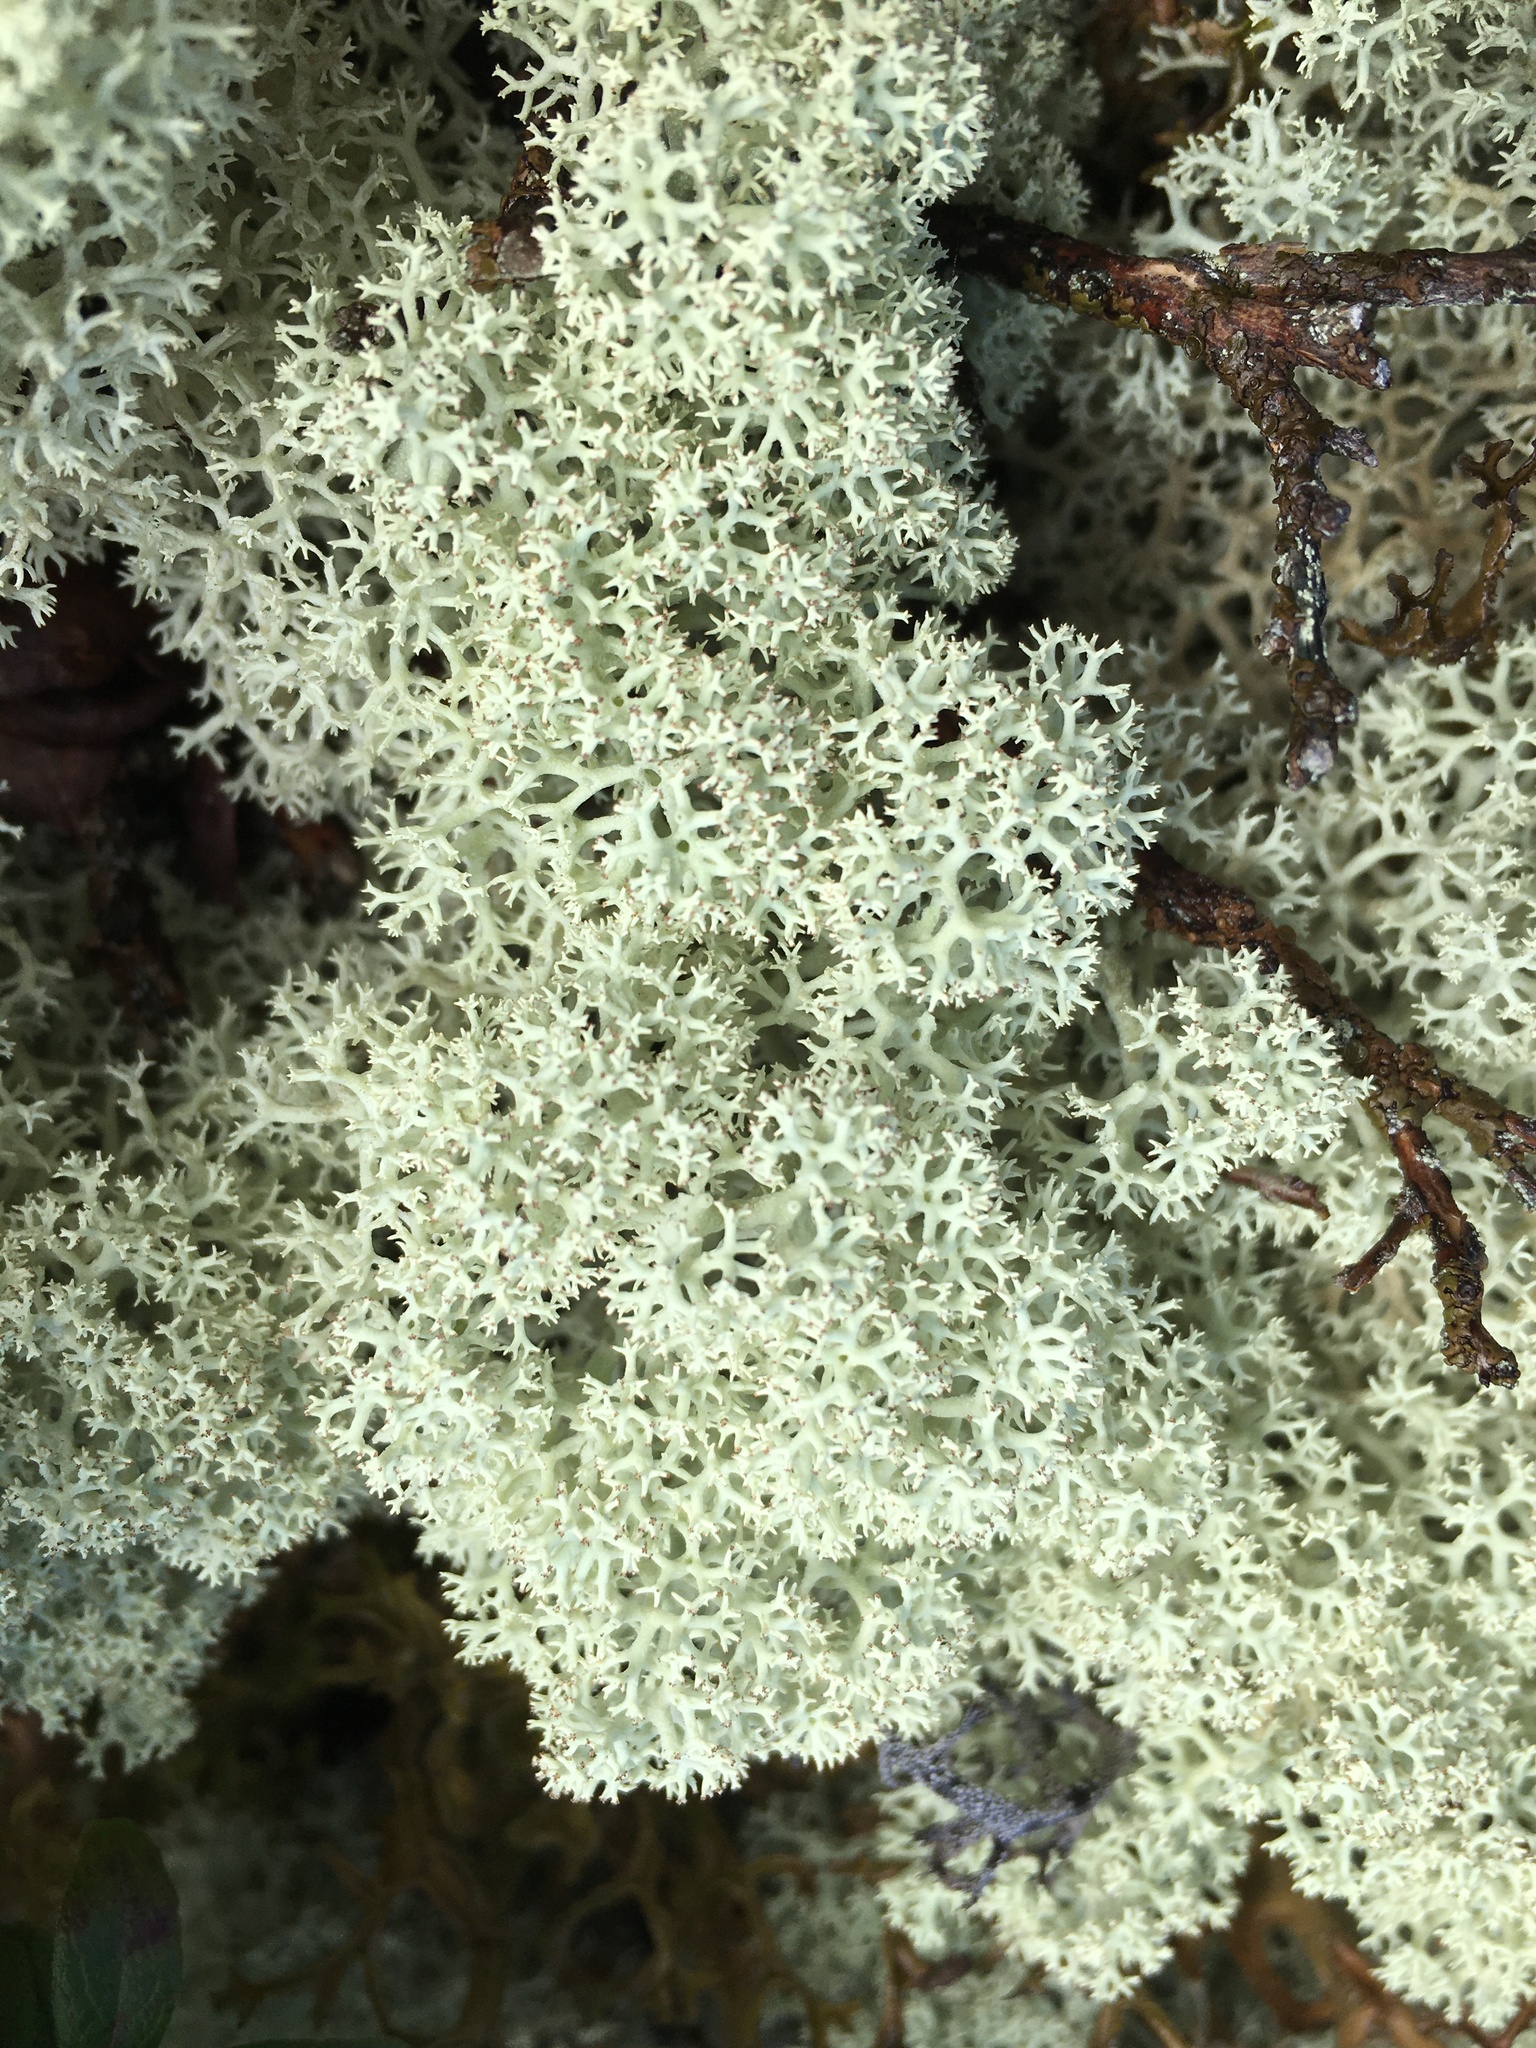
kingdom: Fungi
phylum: Ascomycota
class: Lecanoromycetes
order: Lecanorales
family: Cladoniaceae
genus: Cladonia
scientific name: Cladonia stellaris
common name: Star-tipped reindeer lichen
